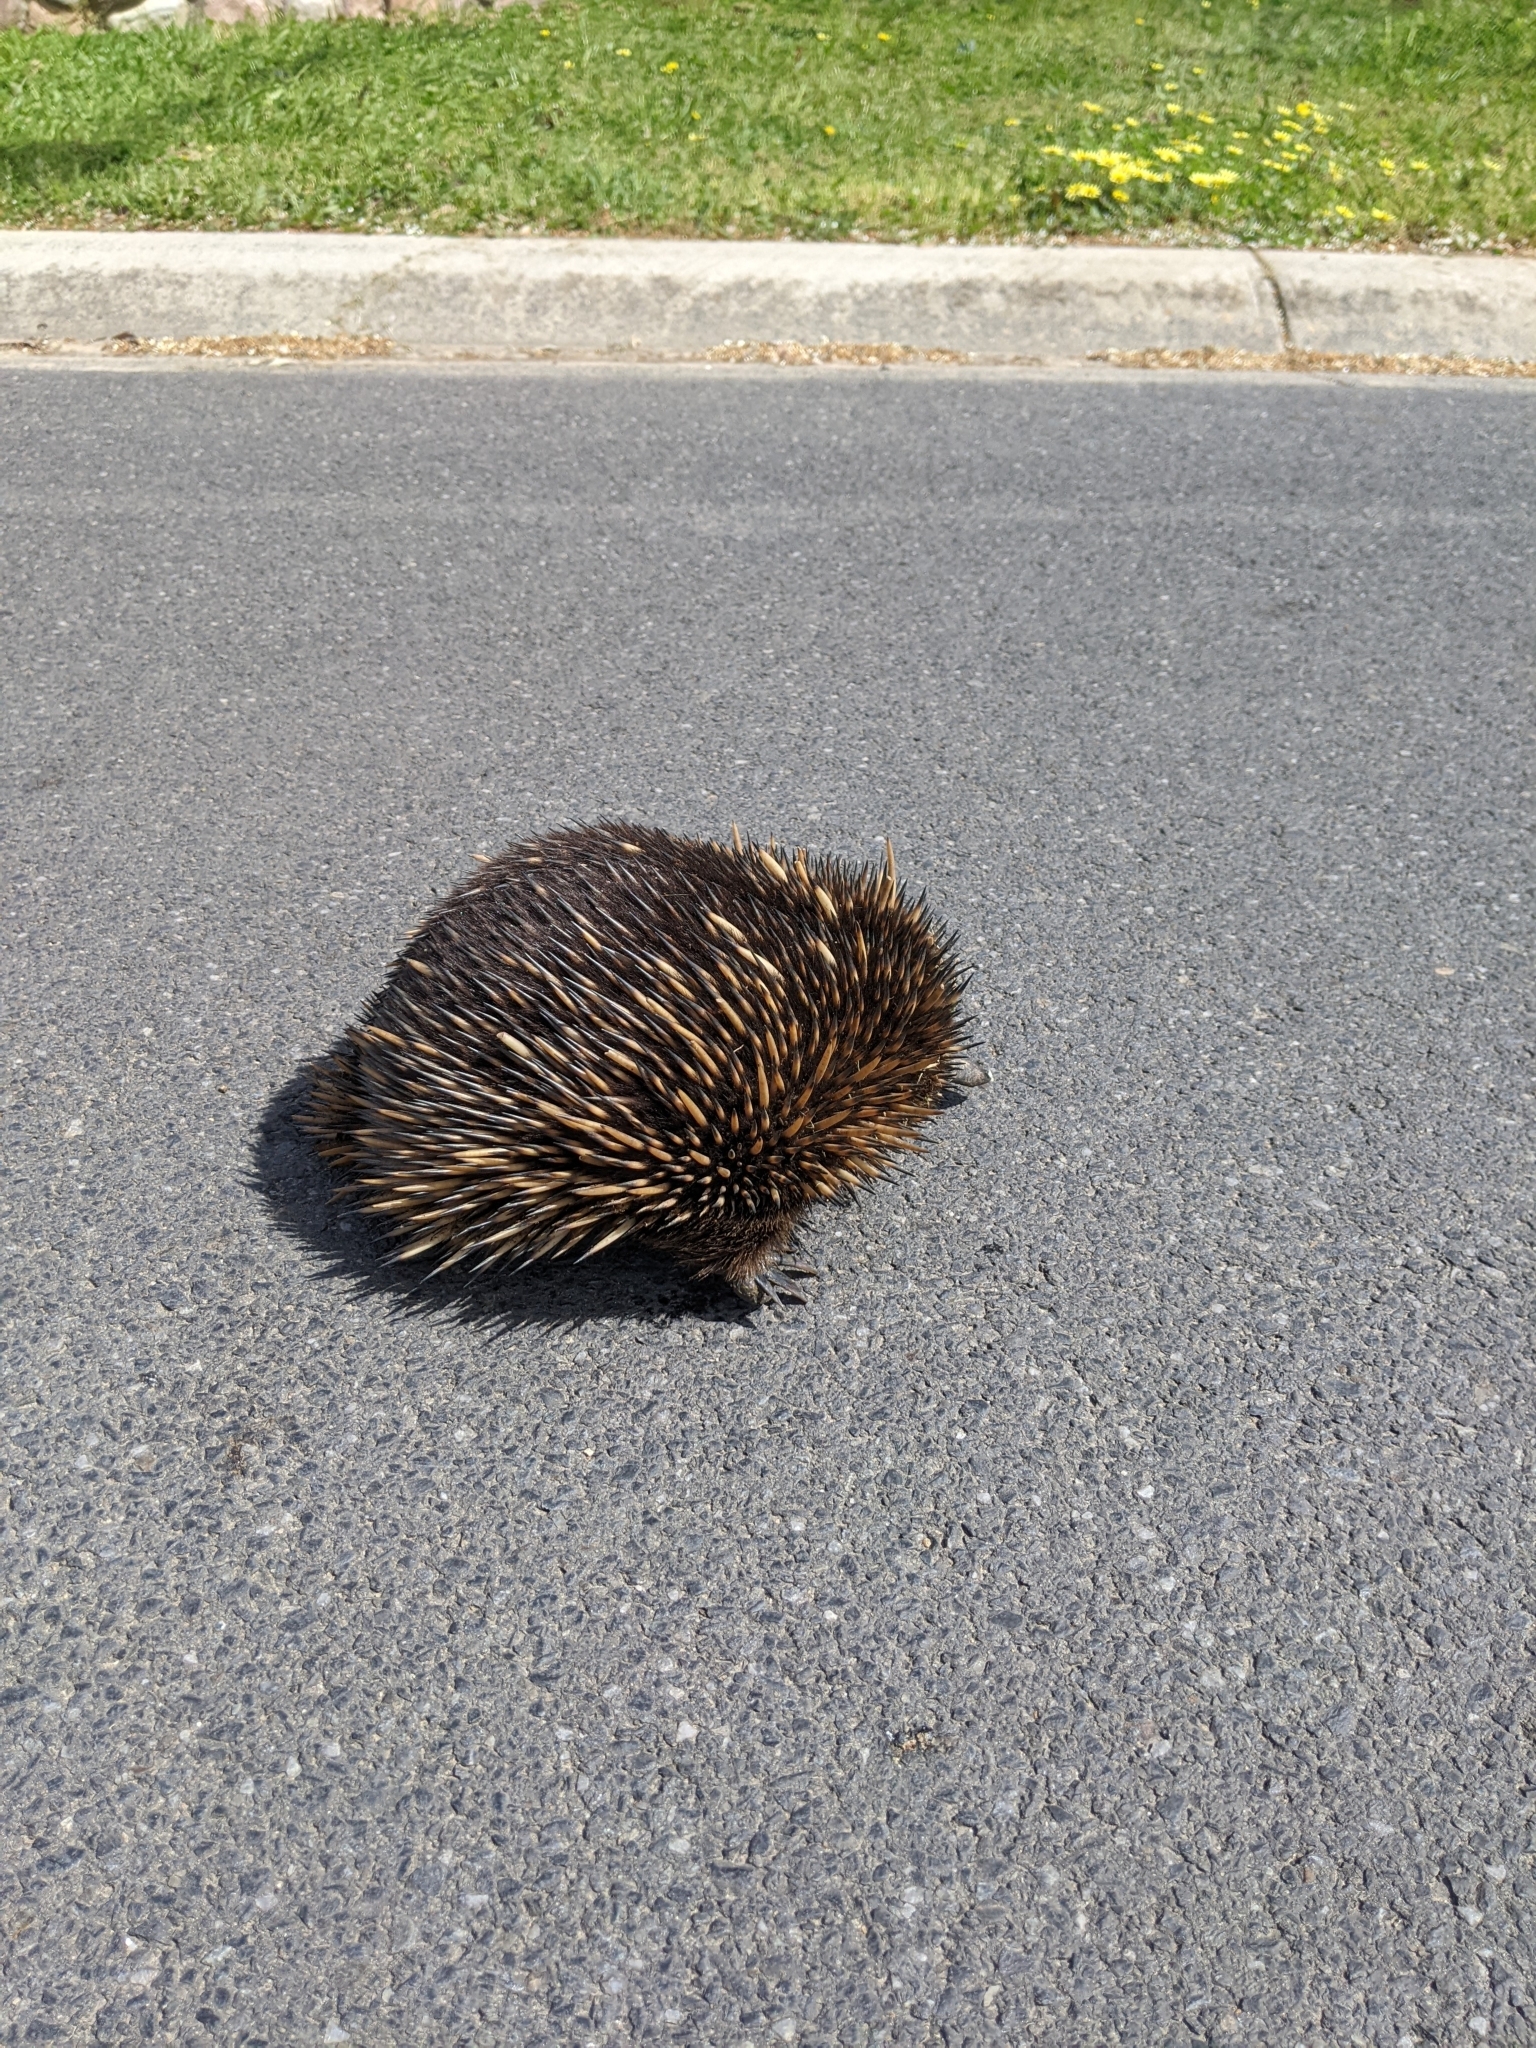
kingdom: Animalia
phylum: Chordata
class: Mammalia
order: Monotremata
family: Tachyglossidae
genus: Tachyglossus
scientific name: Tachyglossus aculeatus
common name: Short-beaked echidna
